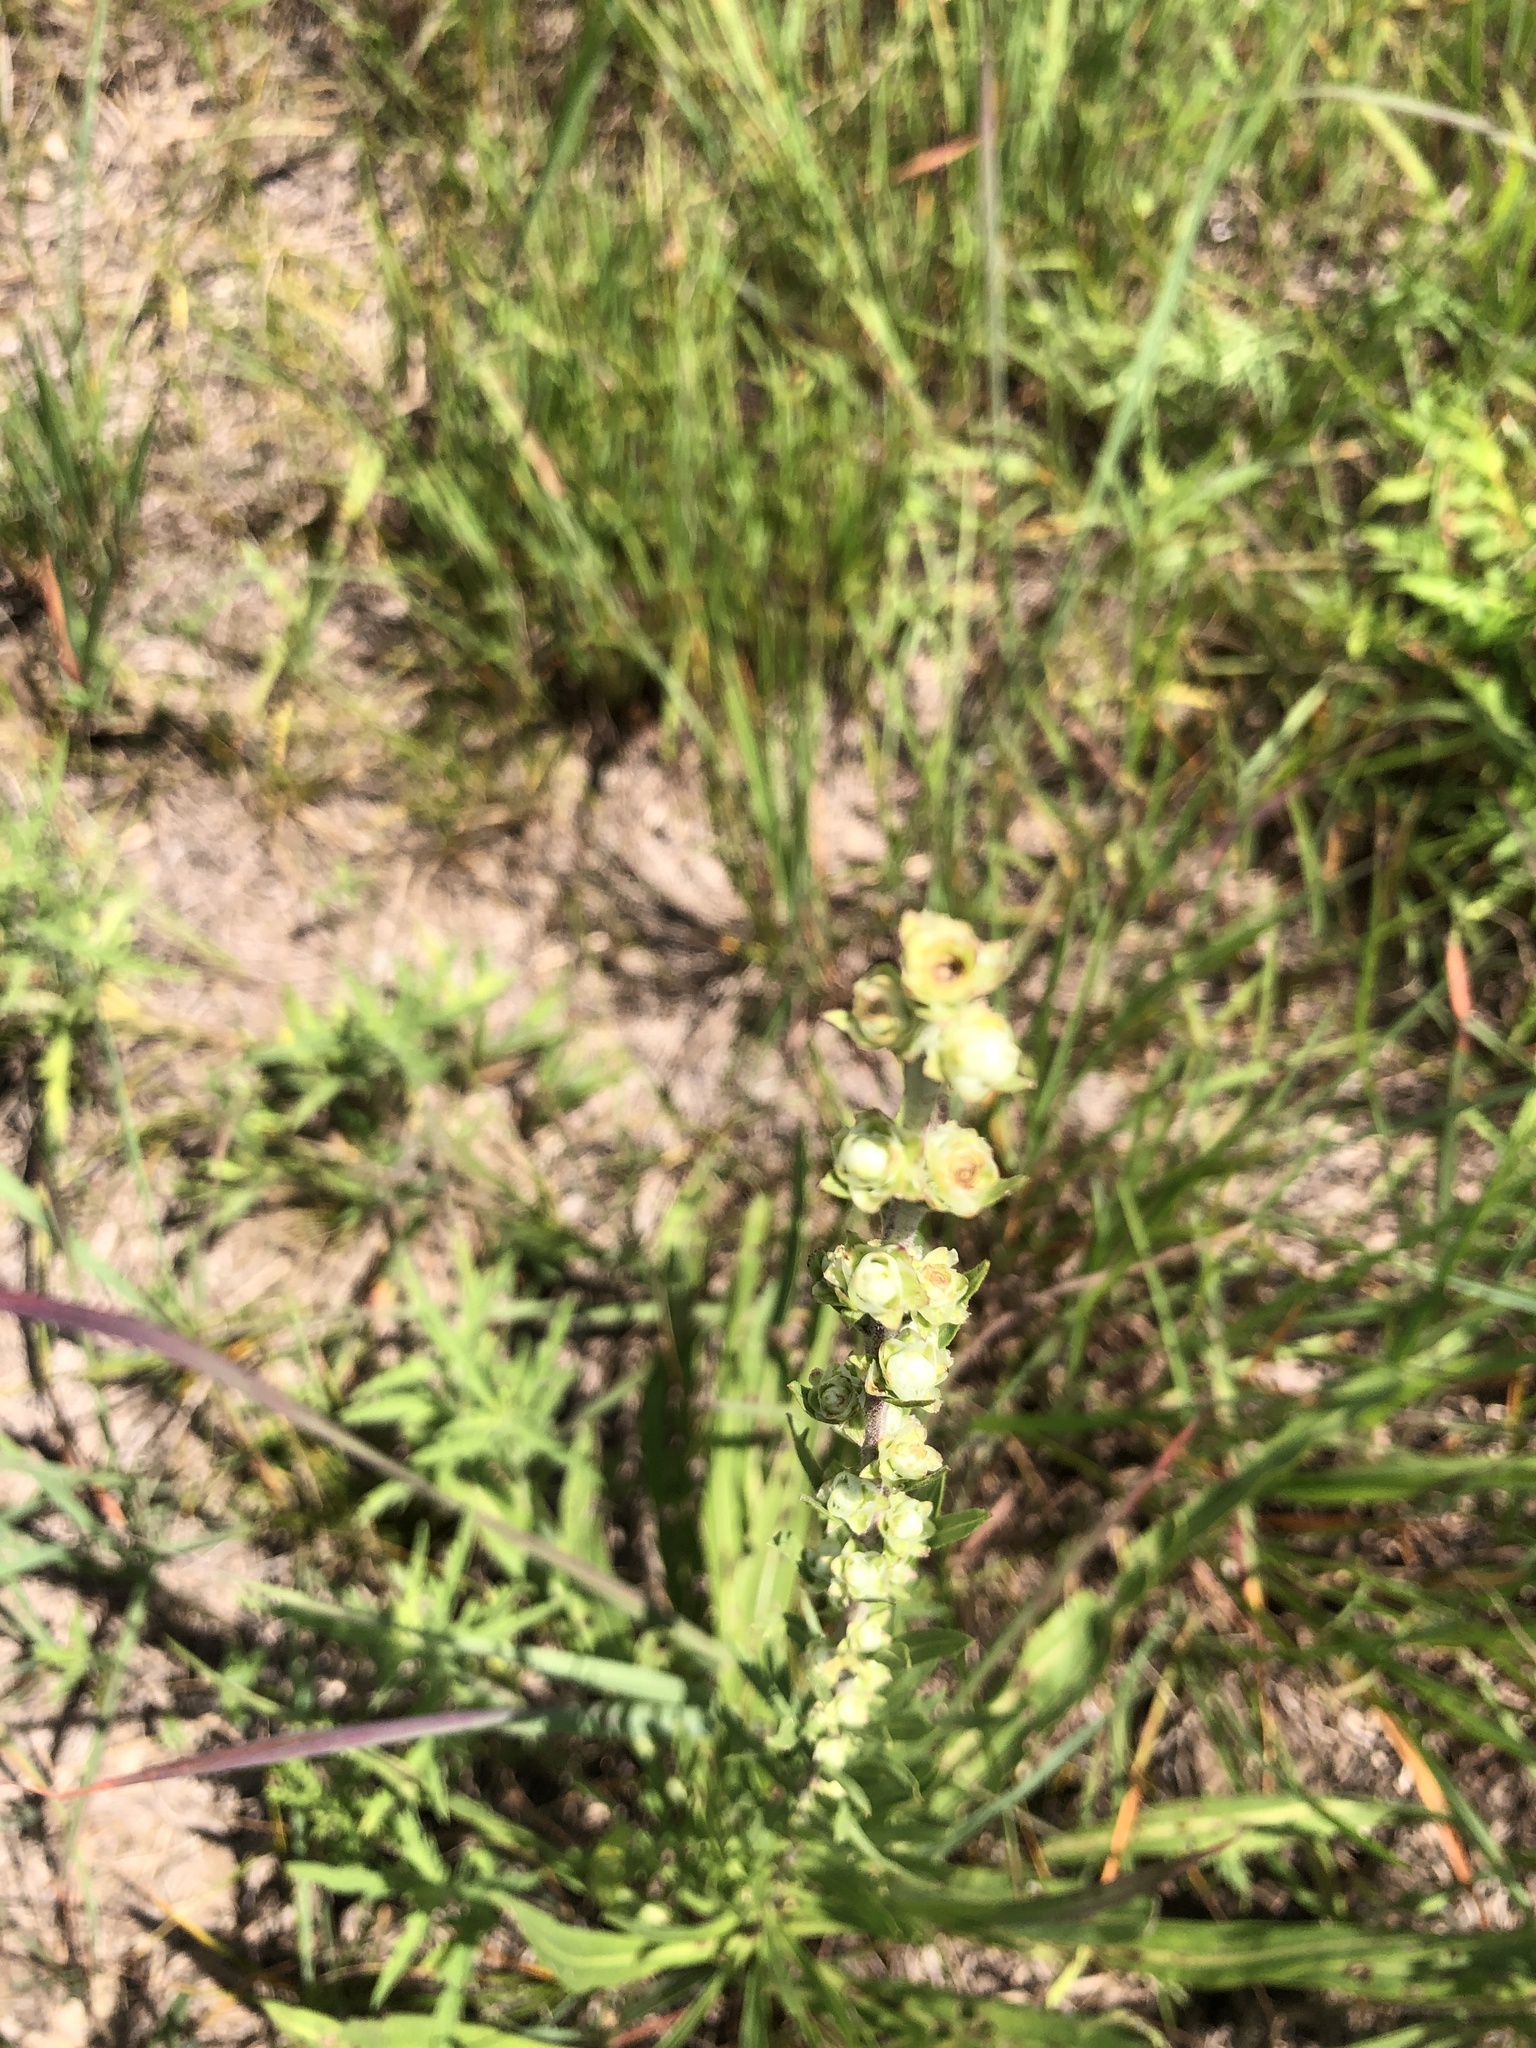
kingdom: Plantae
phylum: Tracheophyta
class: Magnoliopsida
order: Asterales
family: Asteraceae
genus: Liatris
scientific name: Liatris aspera
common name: Lacerate blazing-star
